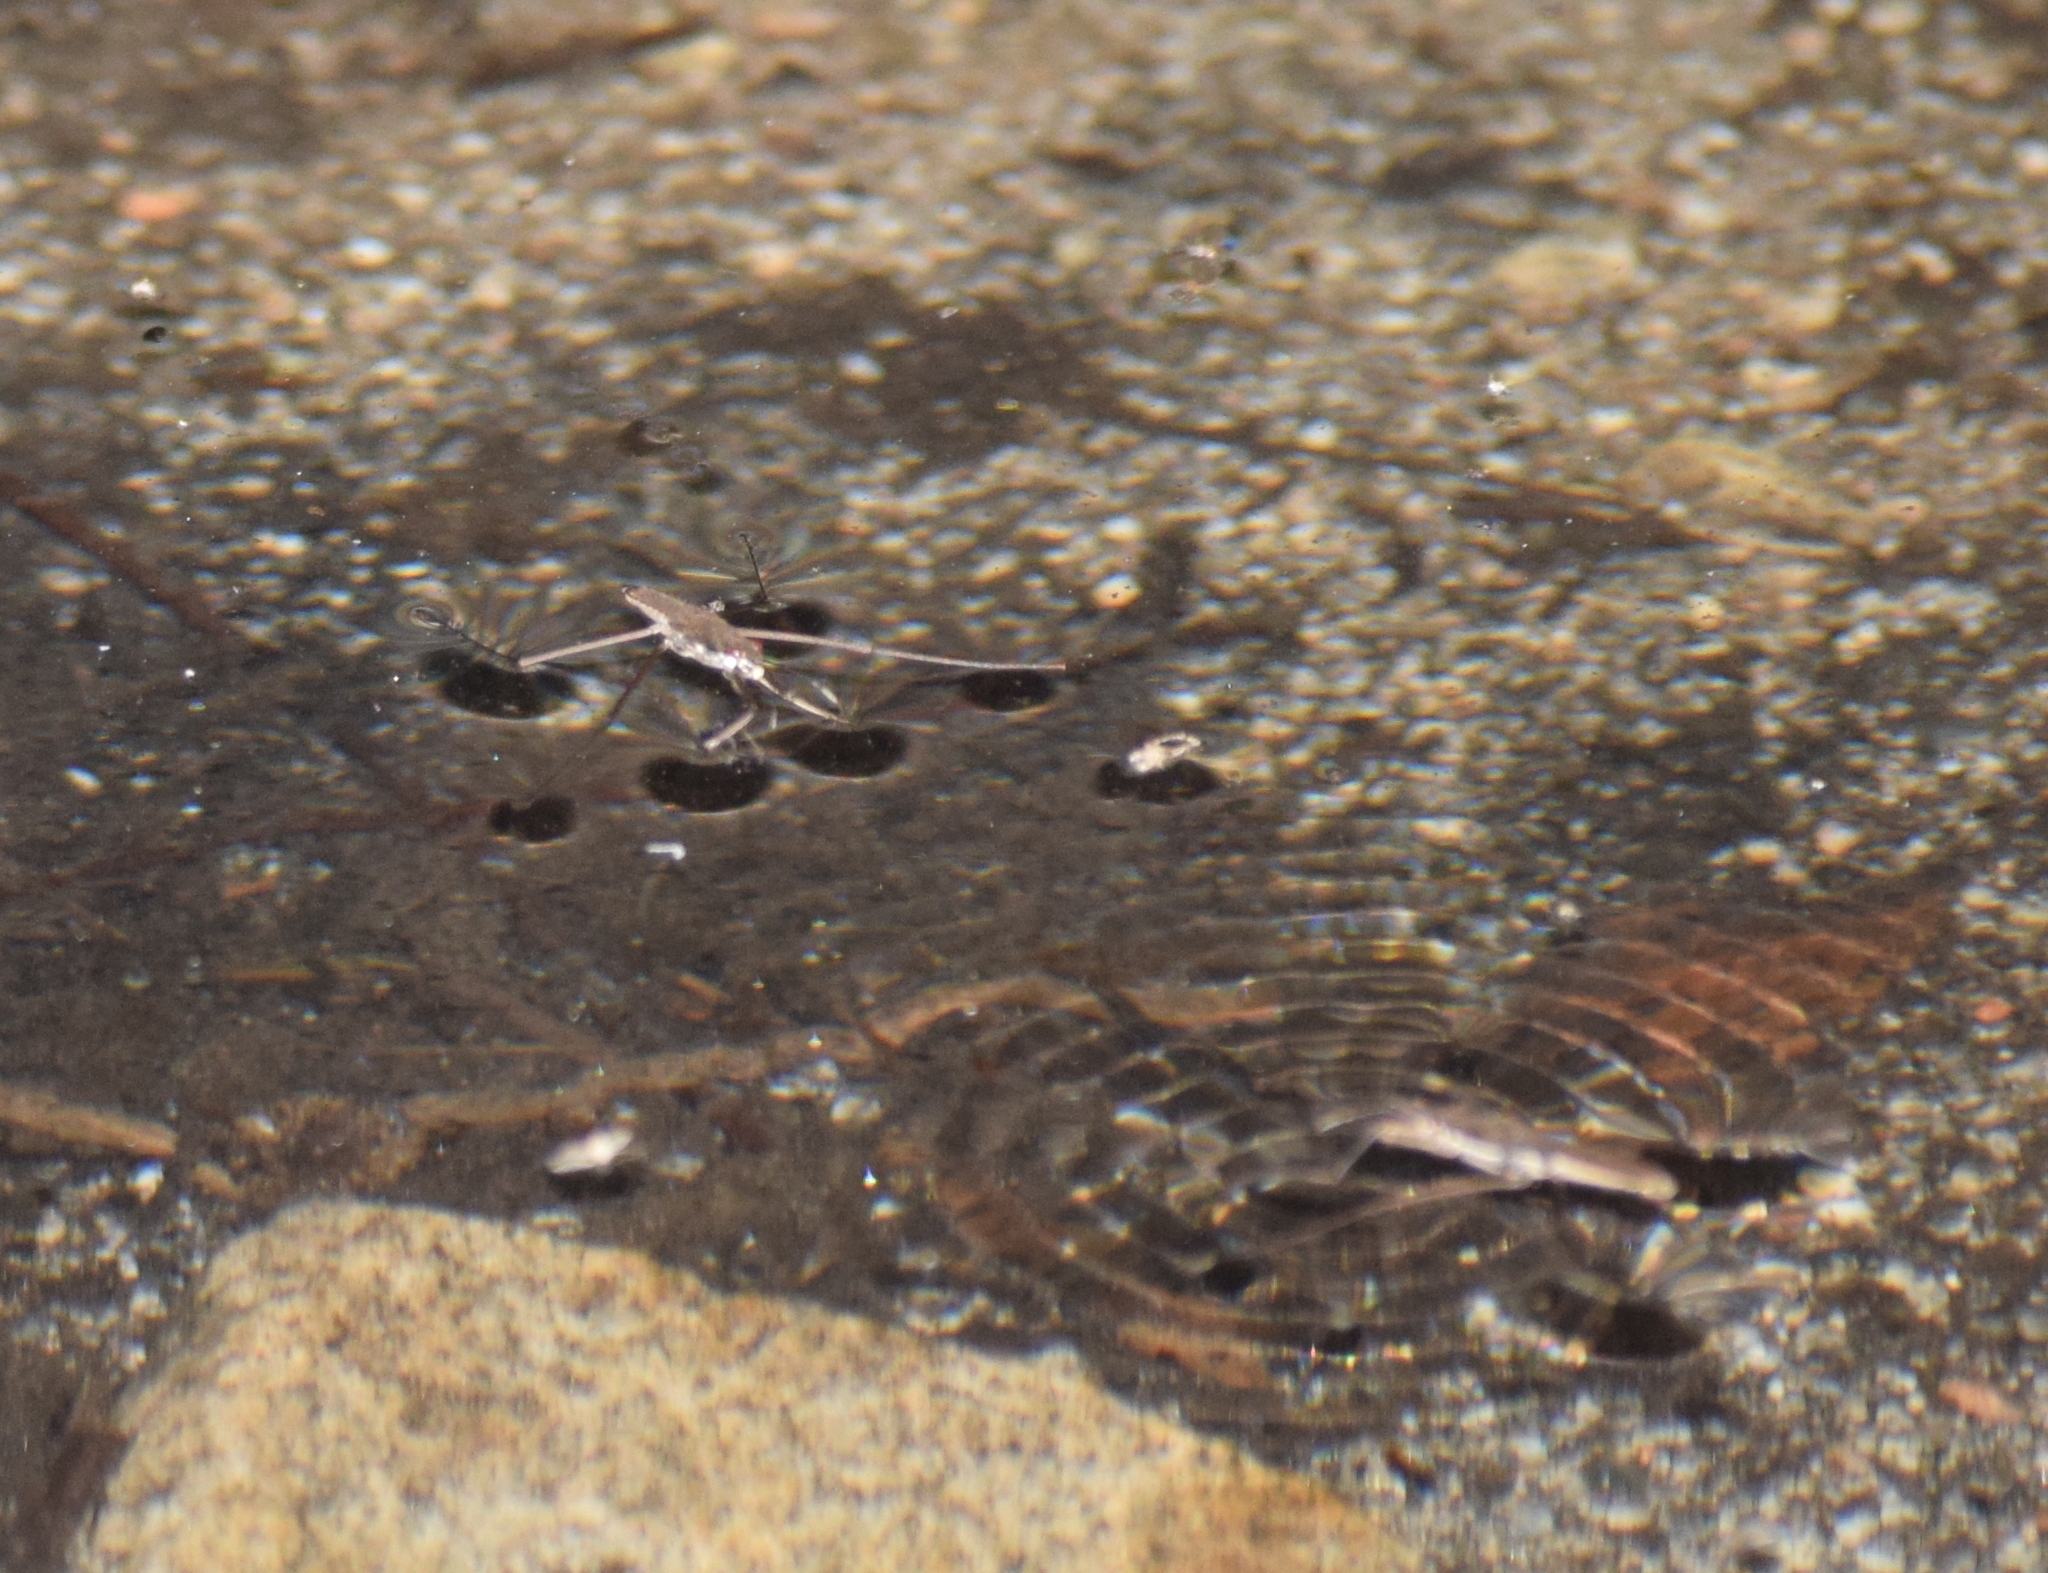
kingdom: Animalia
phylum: Arthropoda
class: Insecta
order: Hemiptera
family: Gerridae
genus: Aquarius
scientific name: Aquarius remigis
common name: Common water strider
